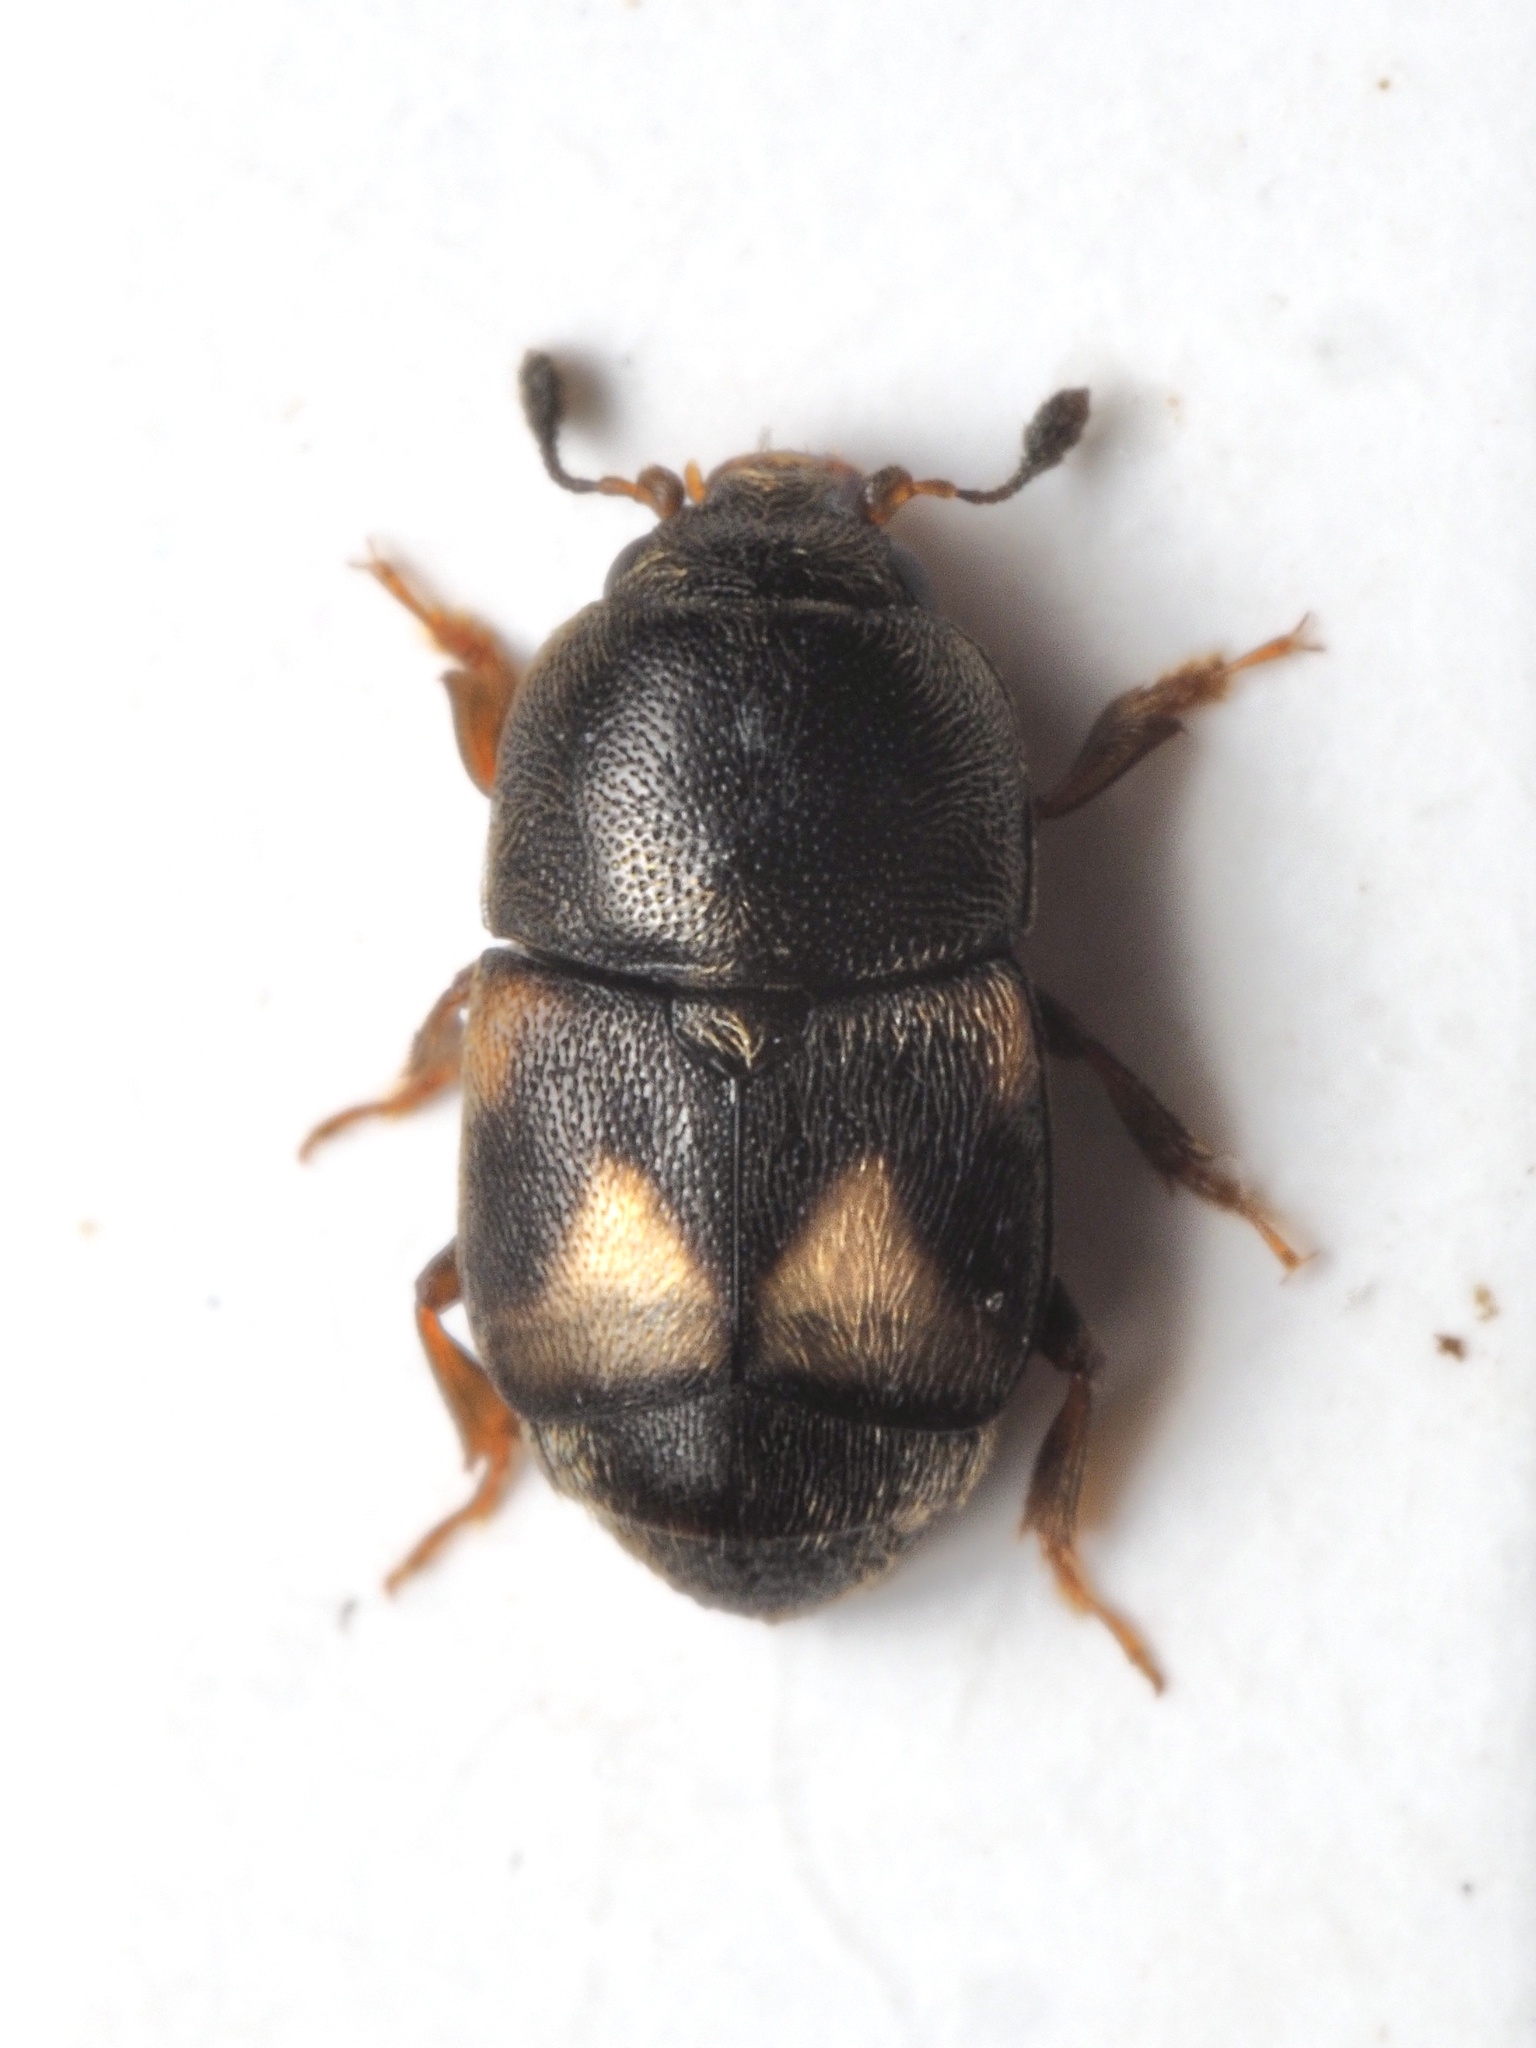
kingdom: Animalia
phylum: Arthropoda
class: Insecta
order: Coleoptera
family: Nitidulidae
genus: Carpophilus
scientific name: Carpophilus hemipterus
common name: Dried fruit beetle
